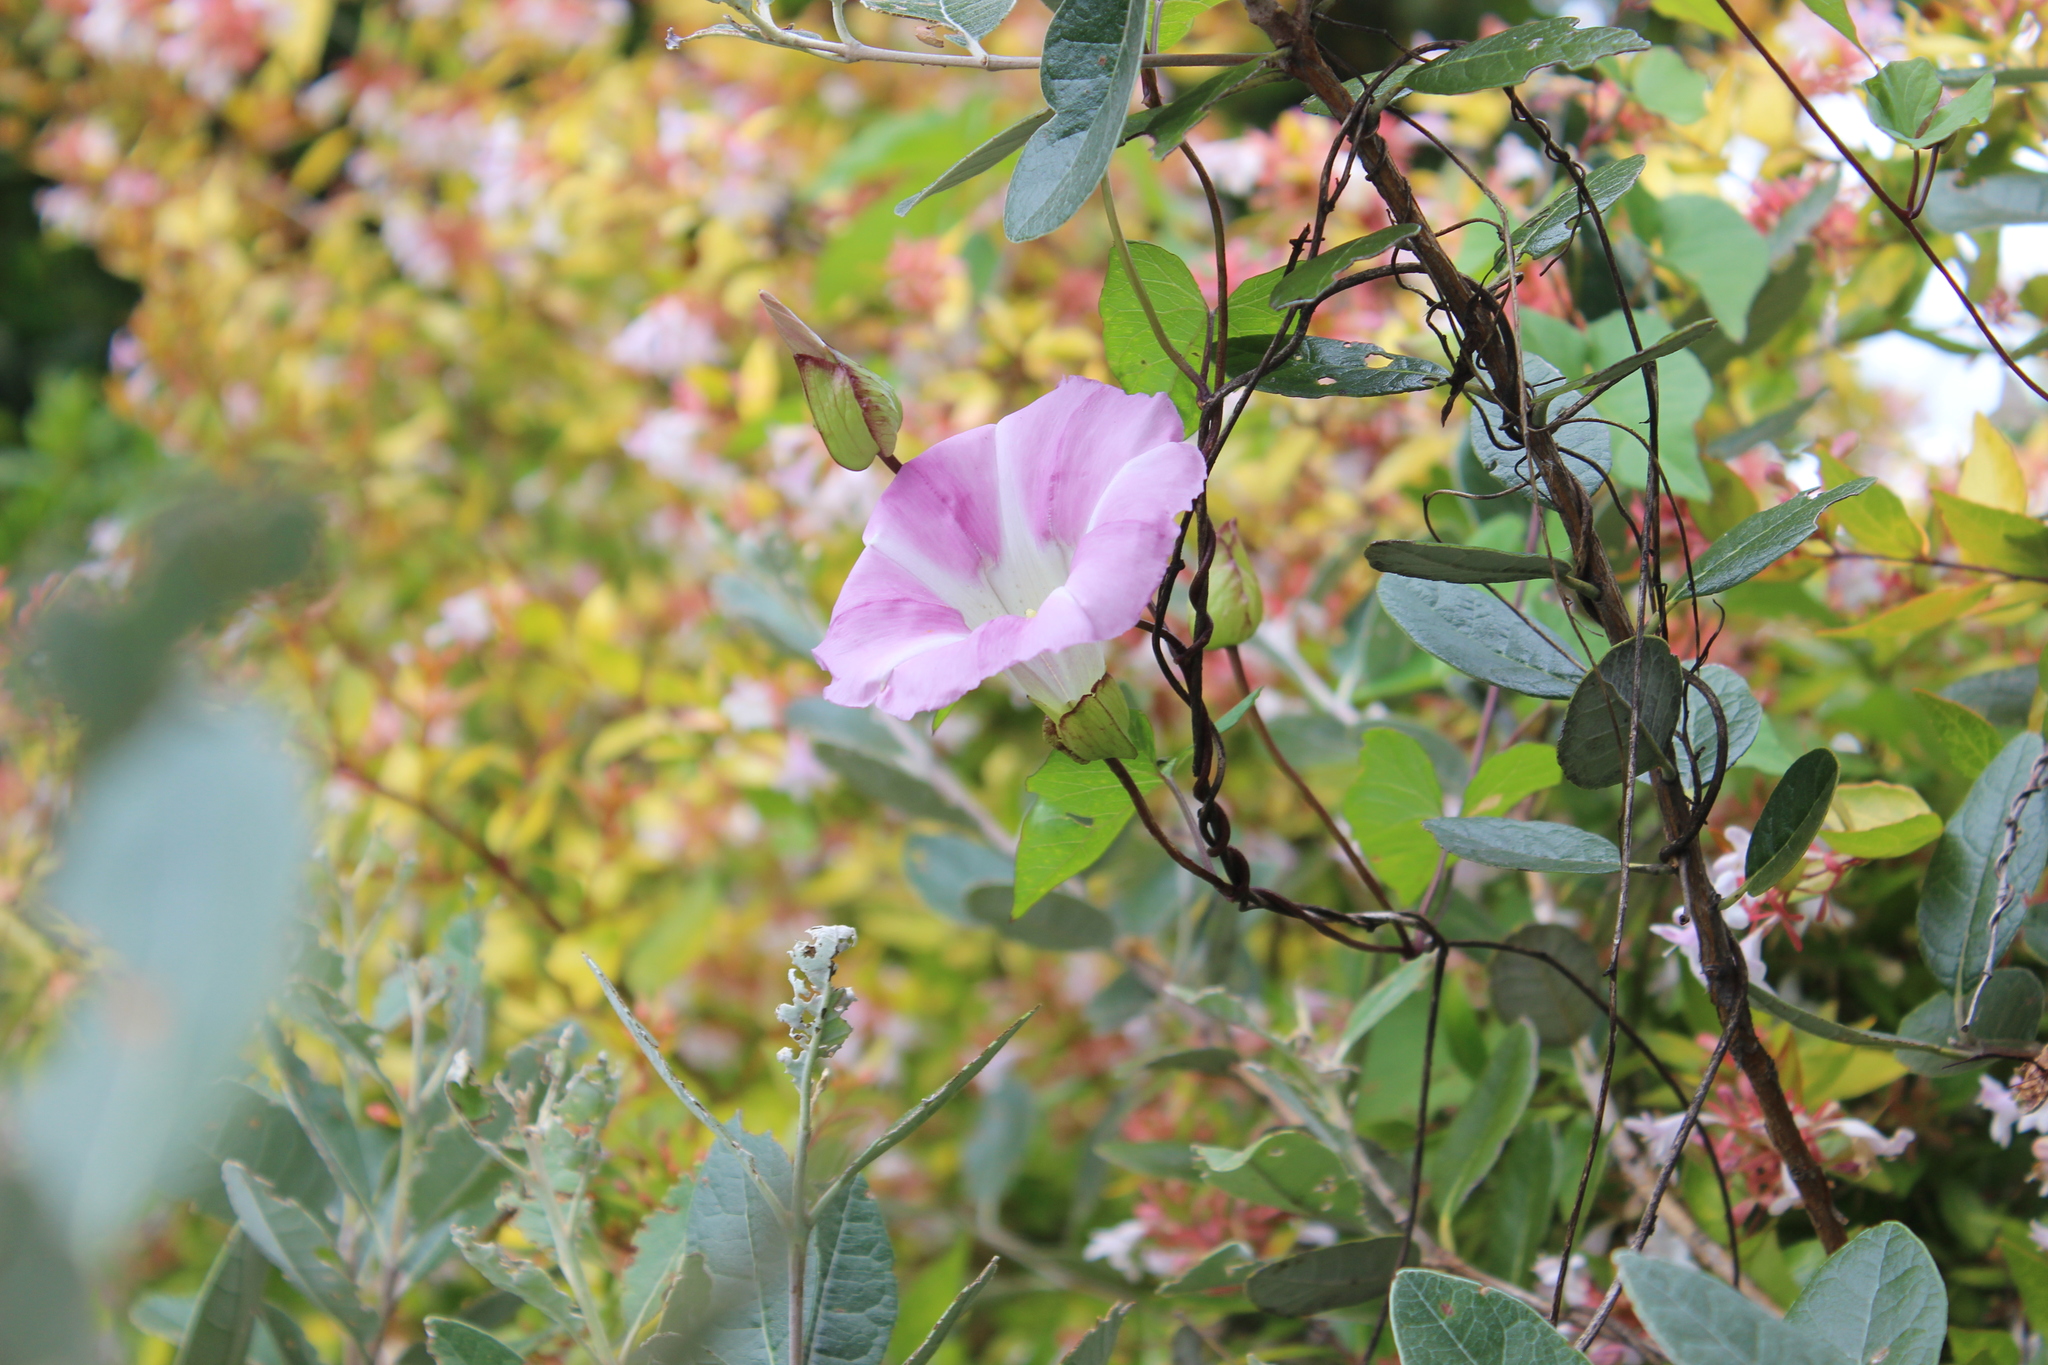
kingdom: Plantae
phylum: Tracheophyta
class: Magnoliopsida
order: Solanales
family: Convolvulaceae
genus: Calystegia
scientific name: Calystegia sepium
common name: Hedge bindweed
